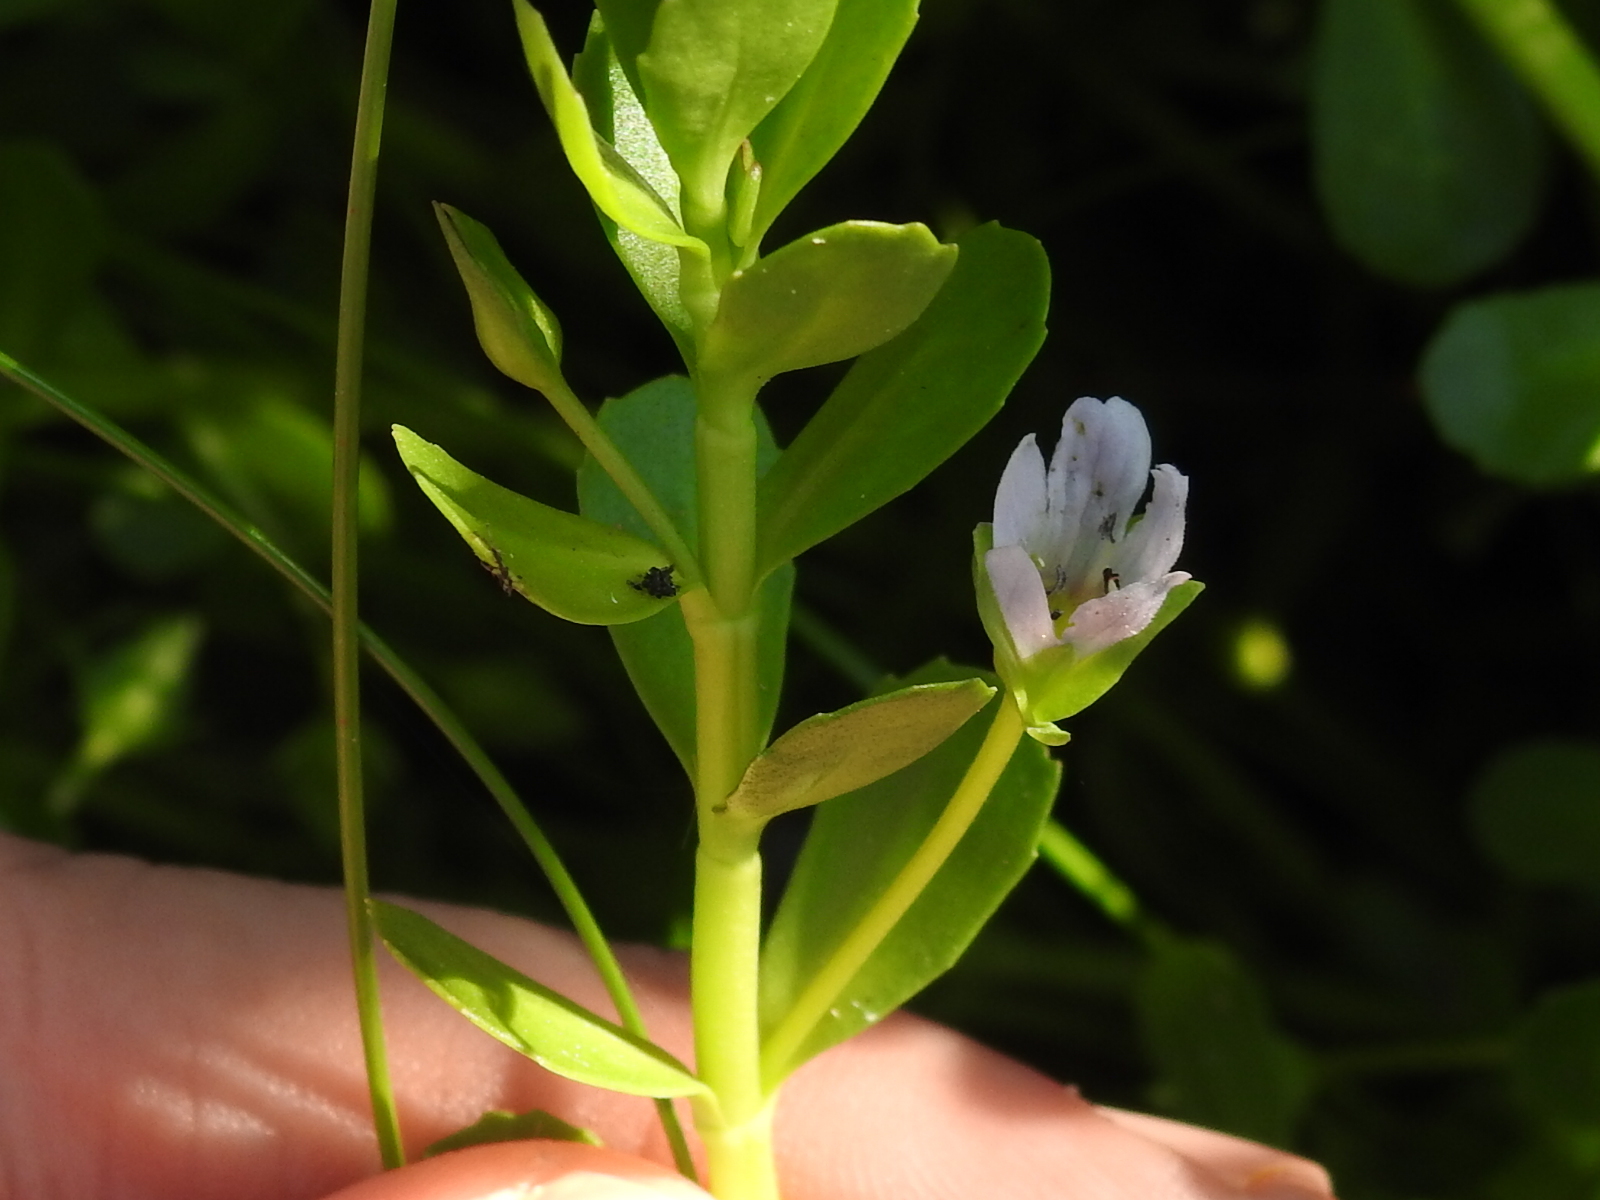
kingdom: Plantae
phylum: Tracheophyta
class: Magnoliopsida
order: Lamiales
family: Plantaginaceae
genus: Bacopa
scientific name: Bacopa monnieri
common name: Indian-pennywort
